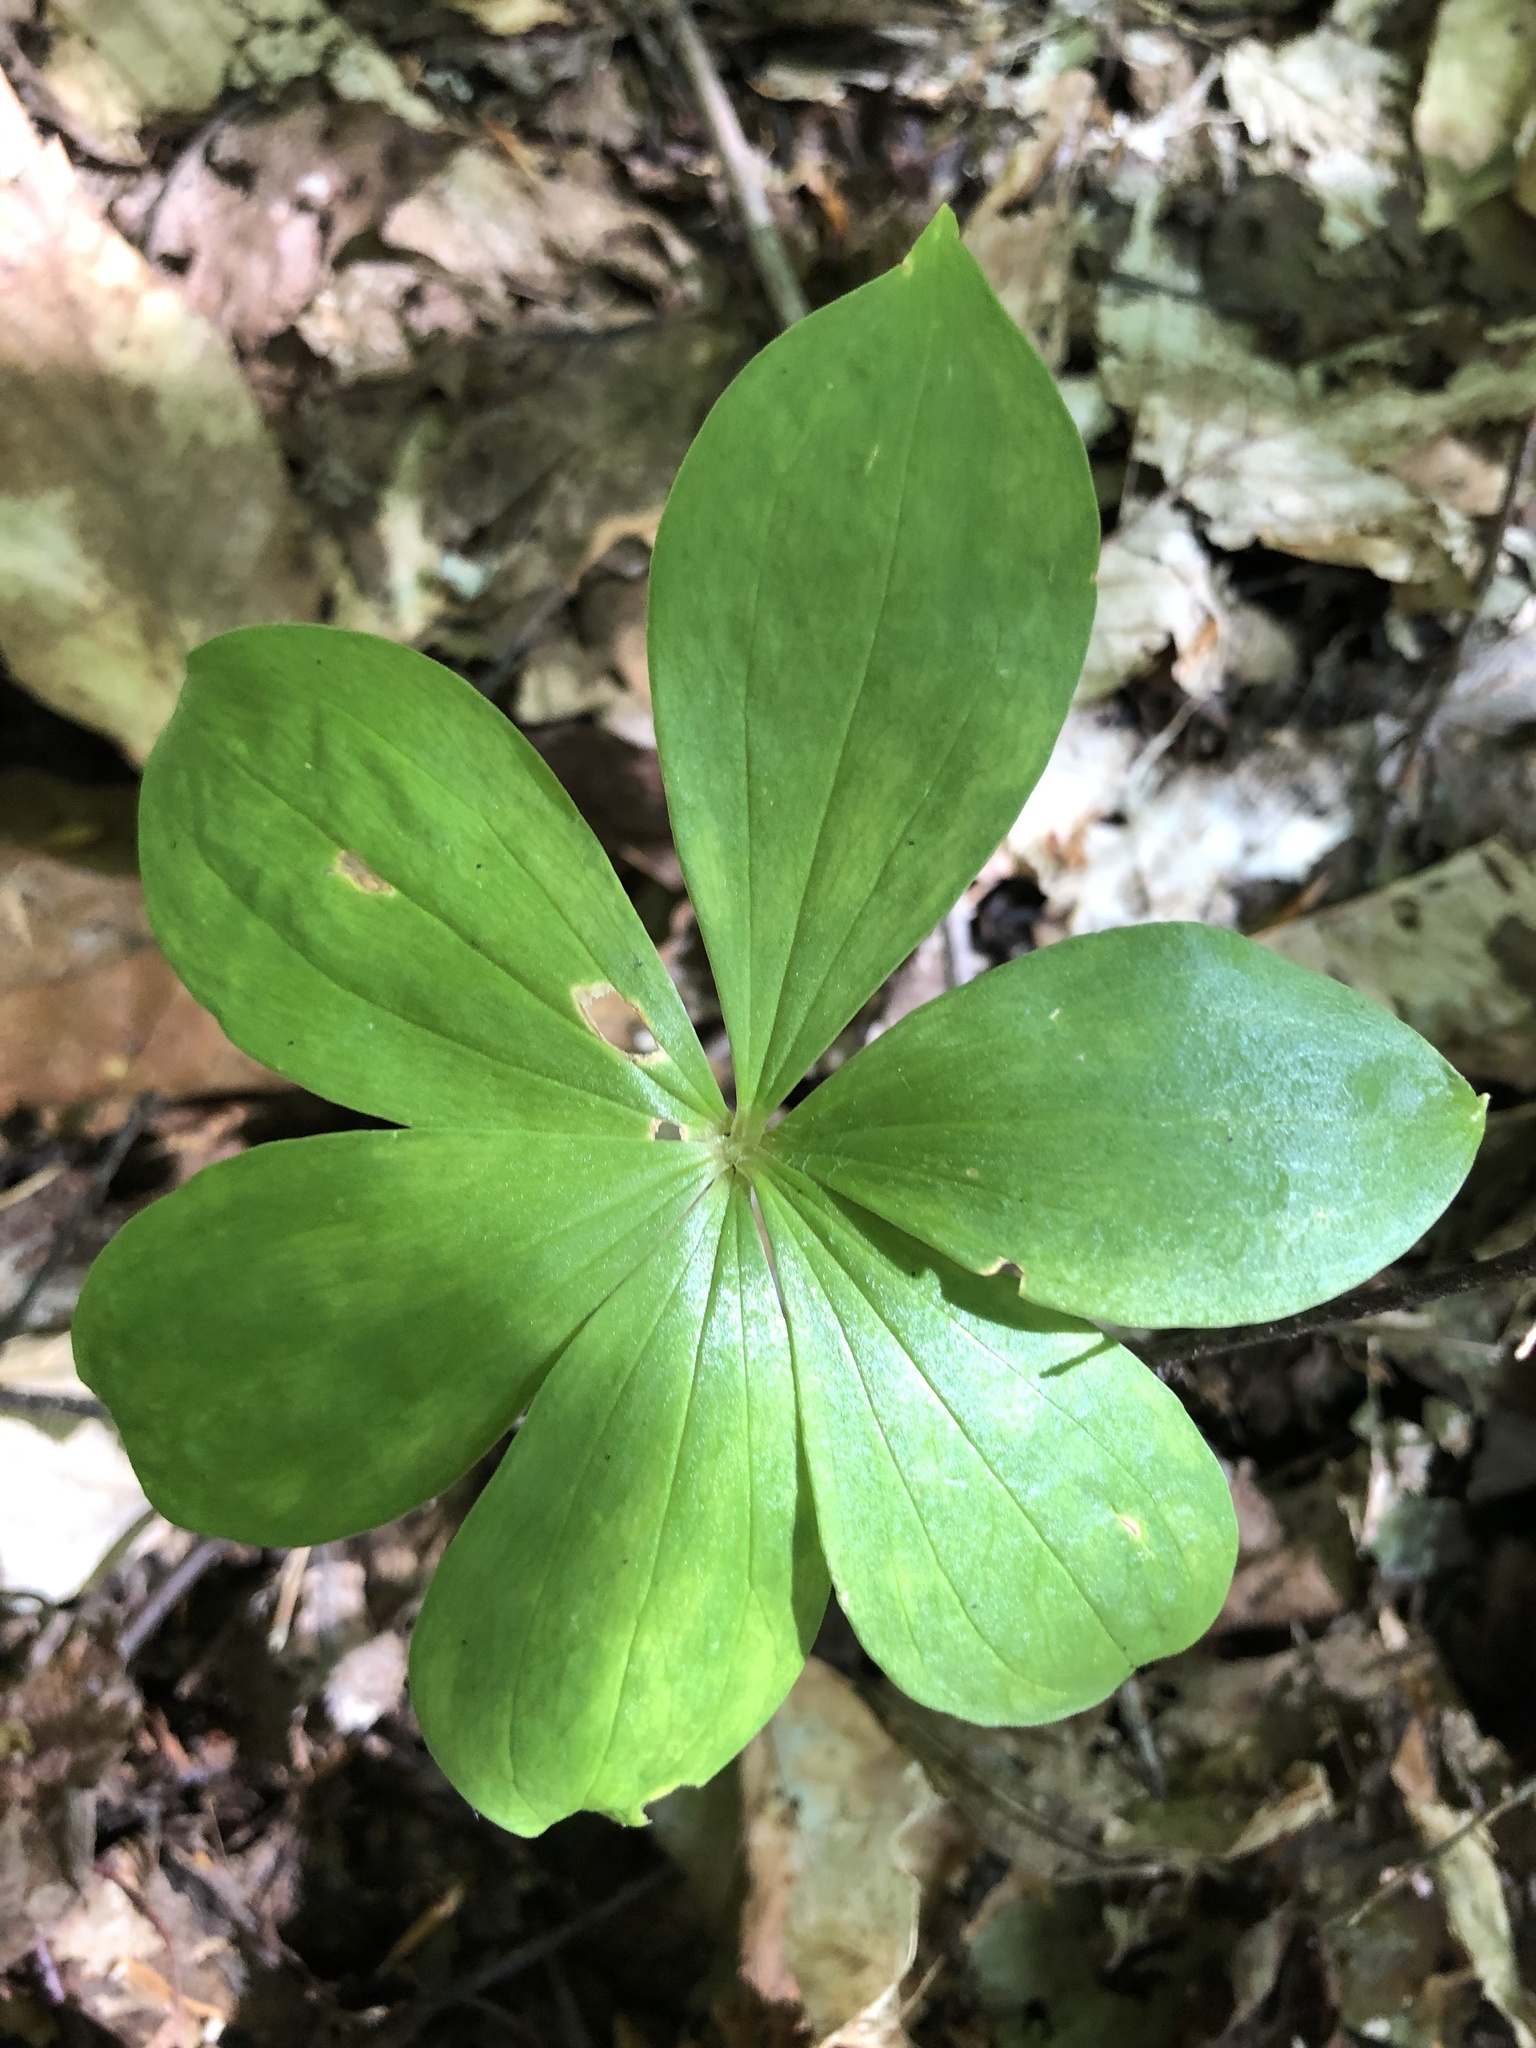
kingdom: Plantae
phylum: Tracheophyta
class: Magnoliopsida
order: Ericales
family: Primulaceae
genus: Lysimachia
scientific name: Lysimachia borealis
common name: American starflower
